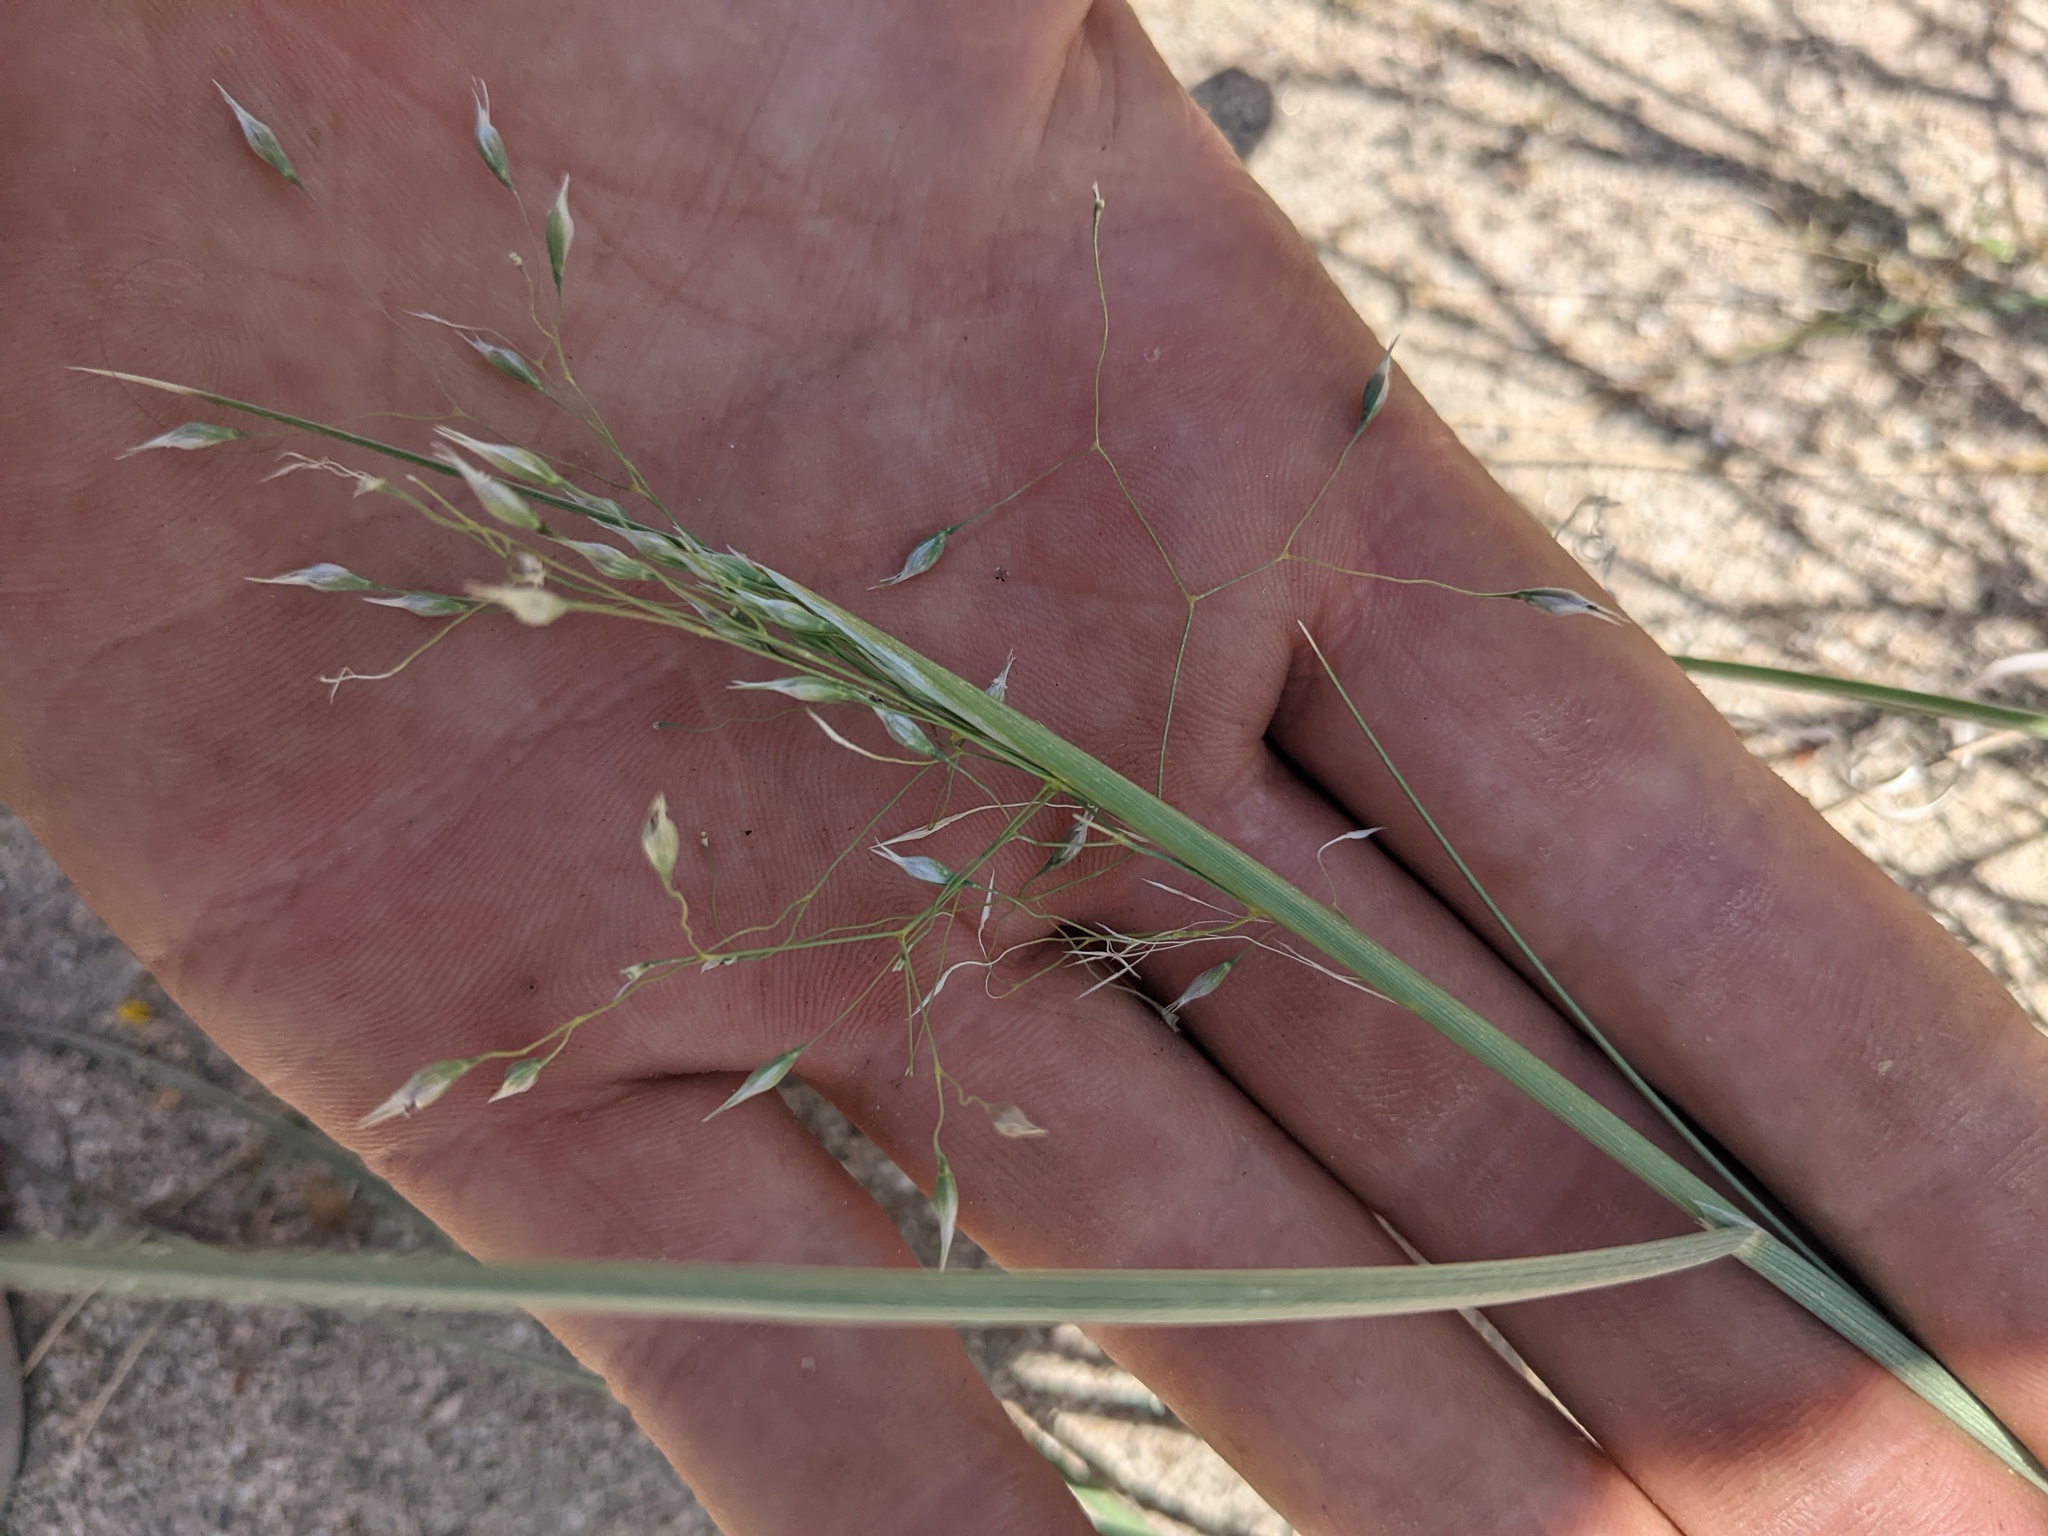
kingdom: Plantae
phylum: Tracheophyta
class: Liliopsida
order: Poales
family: Poaceae
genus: Eriocoma
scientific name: Eriocoma hymenoides
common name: Indian mountain ricegrass
